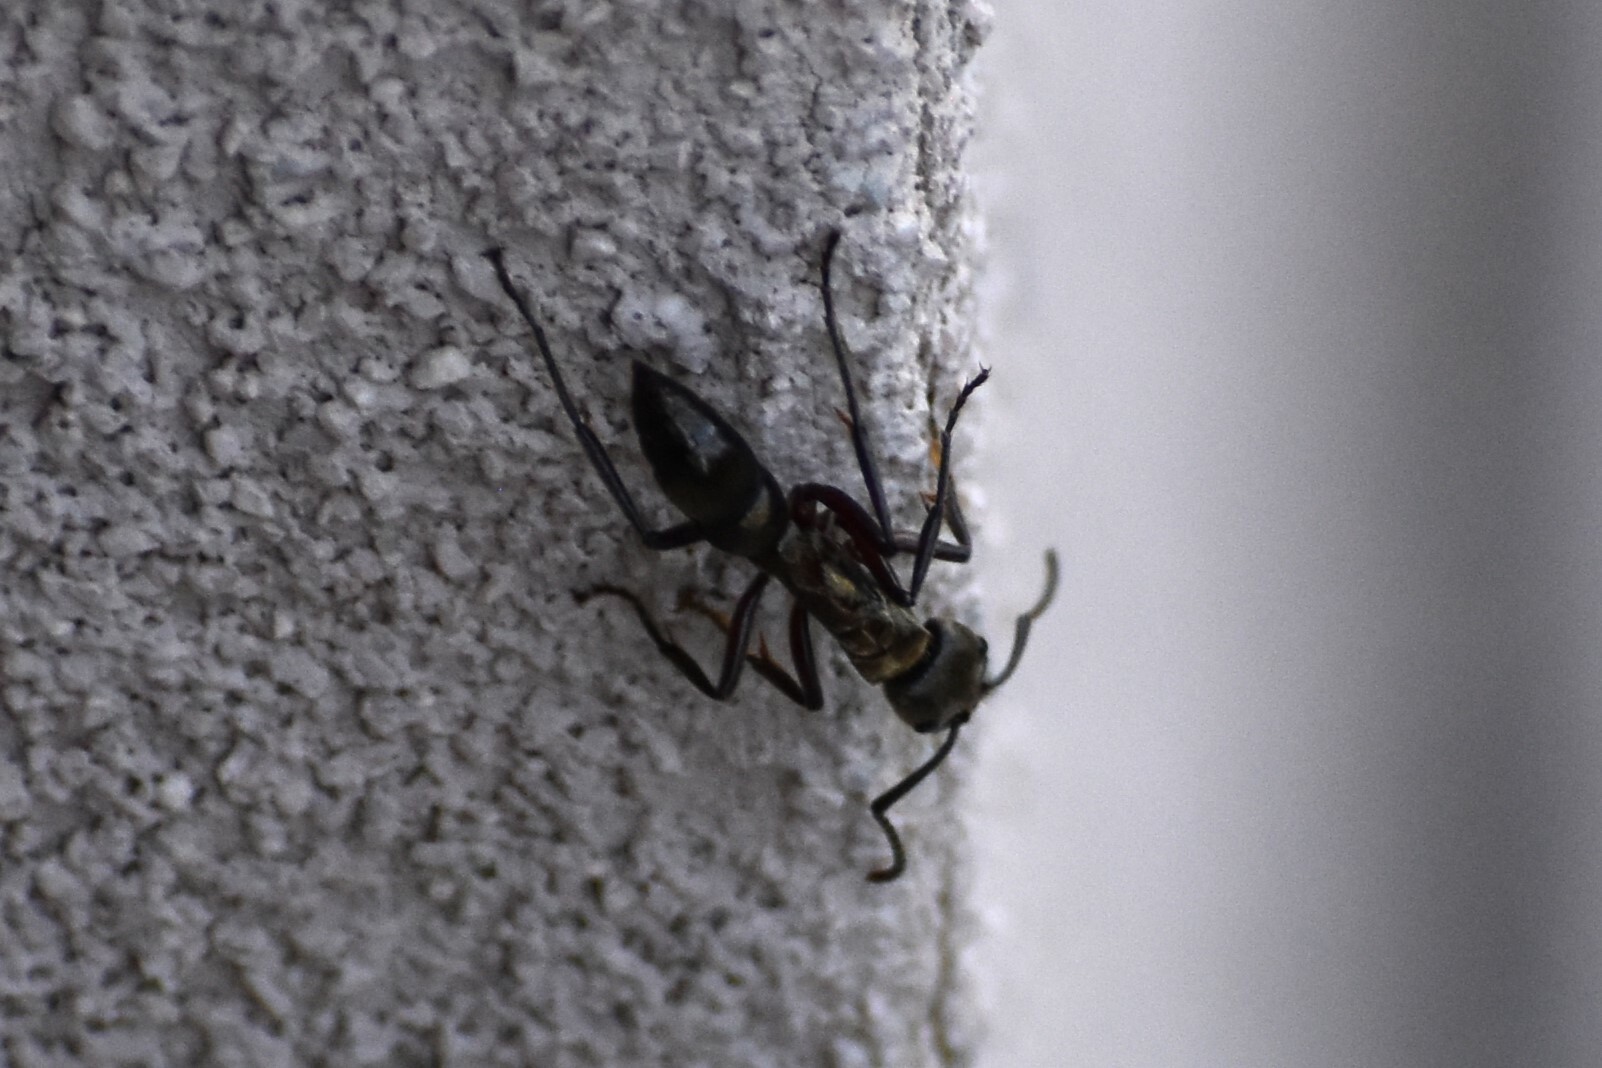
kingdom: Animalia
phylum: Arthropoda
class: Insecta
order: Hymenoptera
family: Formicidae
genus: Pachycondyla
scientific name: Pachycondyla villosa
